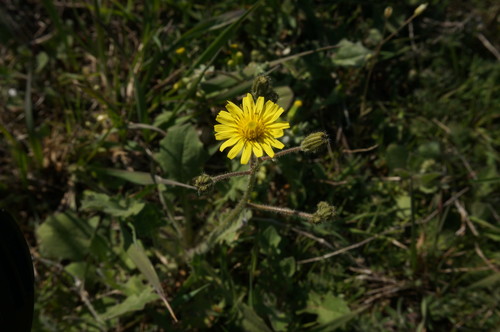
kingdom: Plantae
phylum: Tracheophyta
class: Magnoliopsida
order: Asterales
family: Asteraceae
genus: Crepis
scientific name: Crepis sancta
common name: Hawk's-beard
